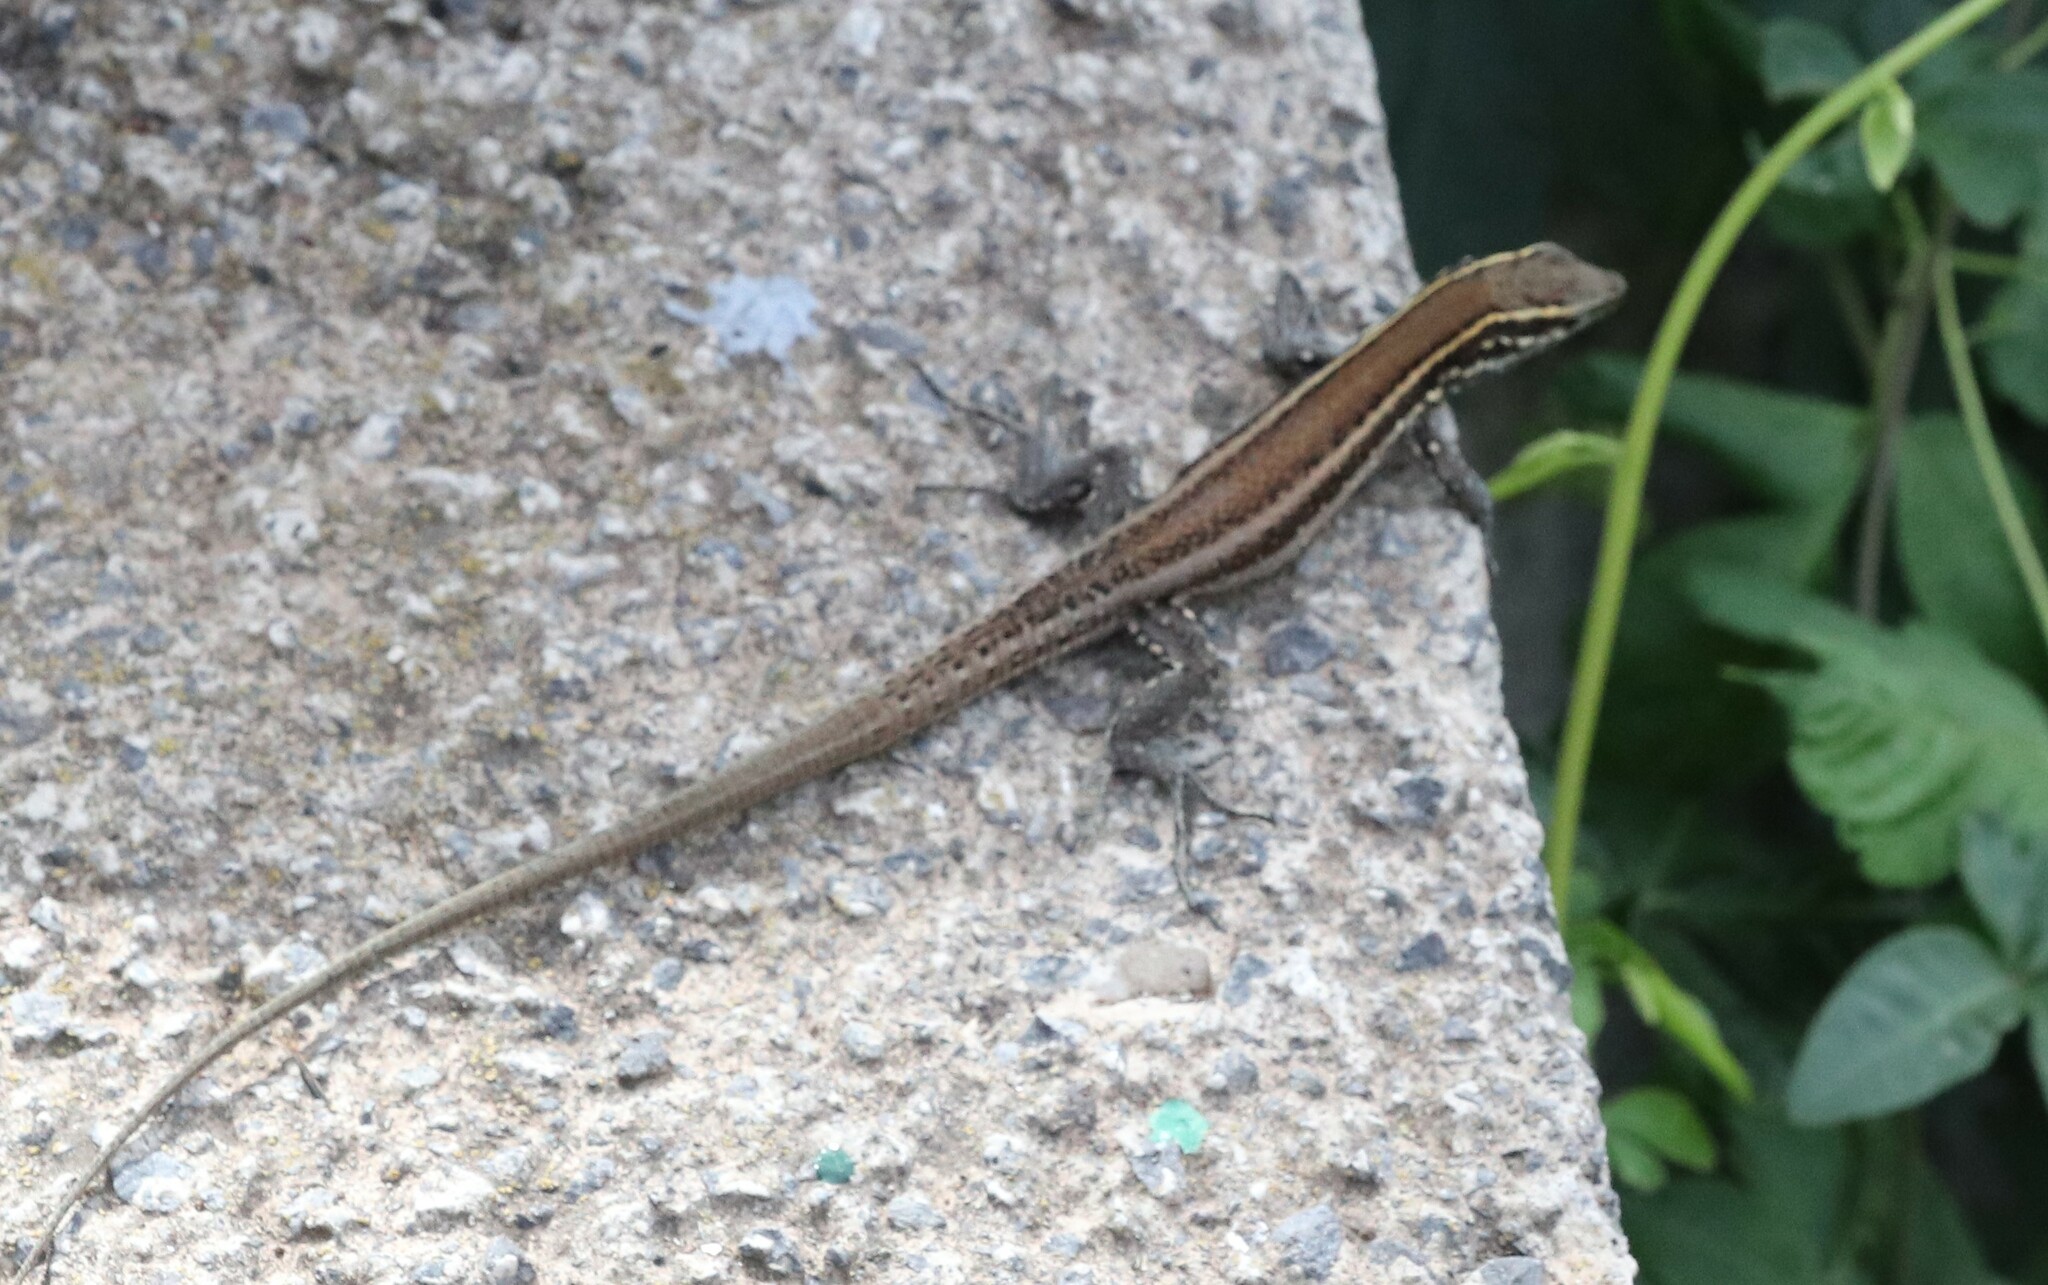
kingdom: Animalia
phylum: Chordata
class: Squamata
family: Lacertidae
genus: Gallotia
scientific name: Gallotia caesaris
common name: Boettger's lizard
